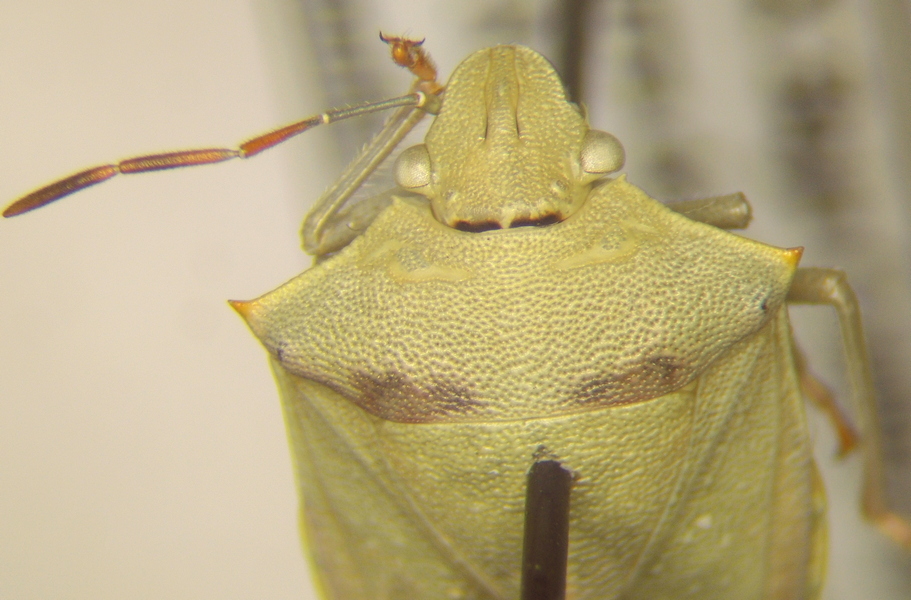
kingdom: Animalia
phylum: Arthropoda
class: Insecta
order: Hemiptera
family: Pentatomidae
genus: Thyanta
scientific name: Thyanta custator
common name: Stink bug
